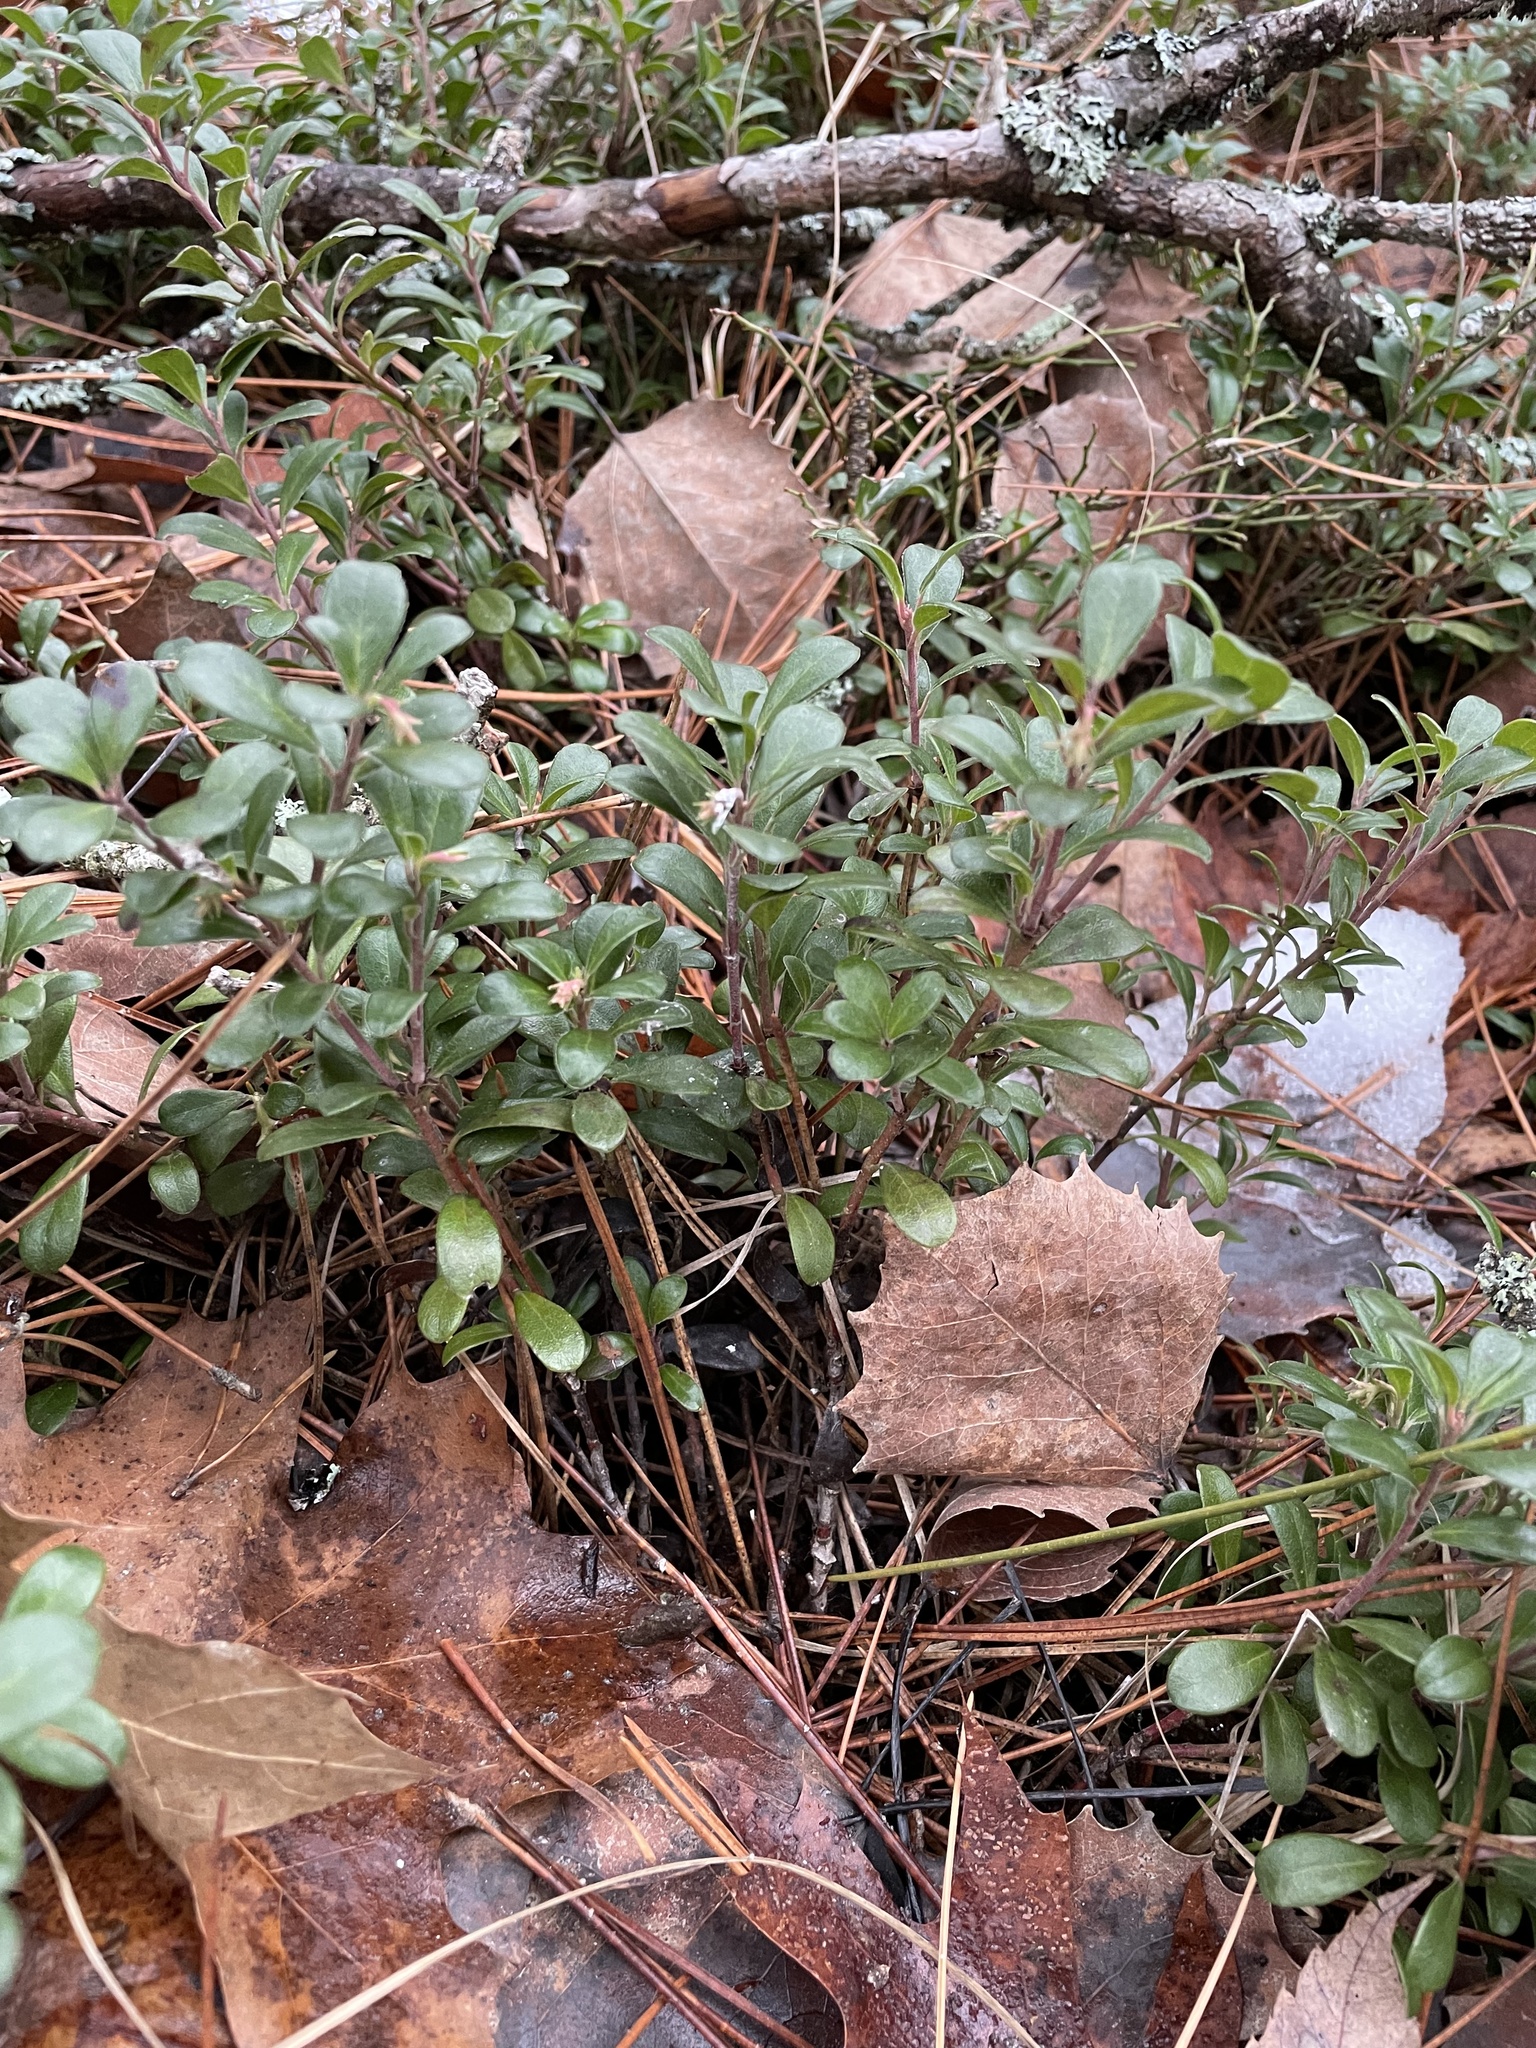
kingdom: Plantae
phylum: Tracheophyta
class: Magnoliopsida
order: Ericales
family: Ericaceae
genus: Arctostaphylos
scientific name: Arctostaphylos uva-ursi
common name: Bearberry
